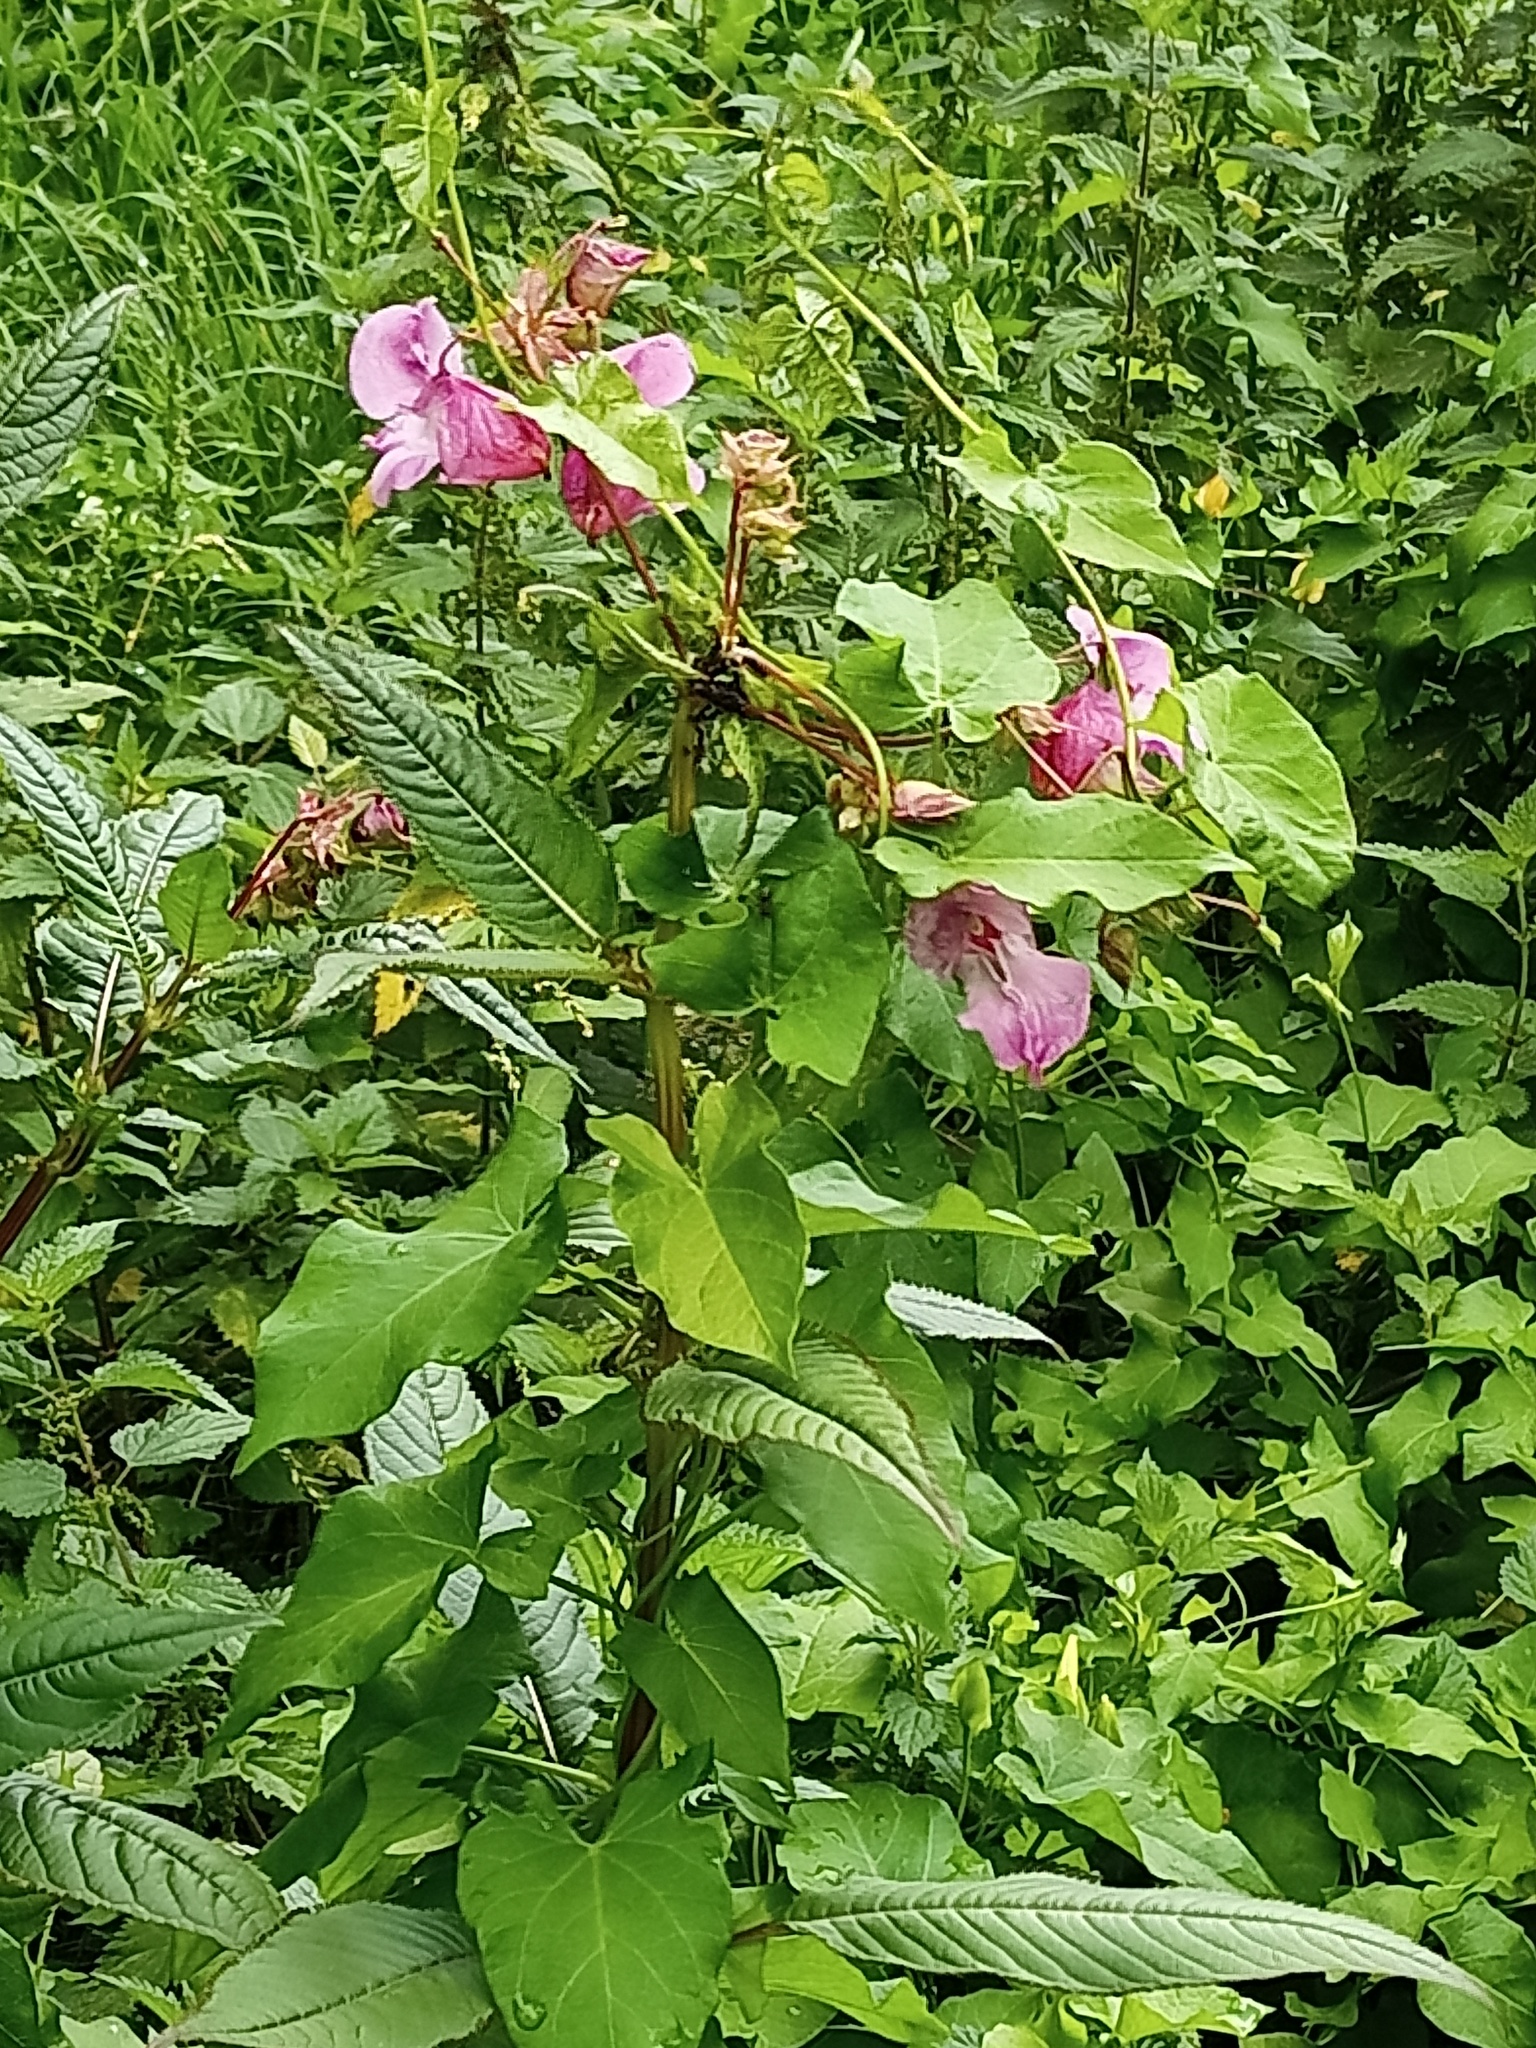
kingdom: Plantae
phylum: Tracheophyta
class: Magnoliopsida
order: Ericales
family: Balsaminaceae
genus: Impatiens
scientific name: Impatiens glandulifera
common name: Himalayan balsam
